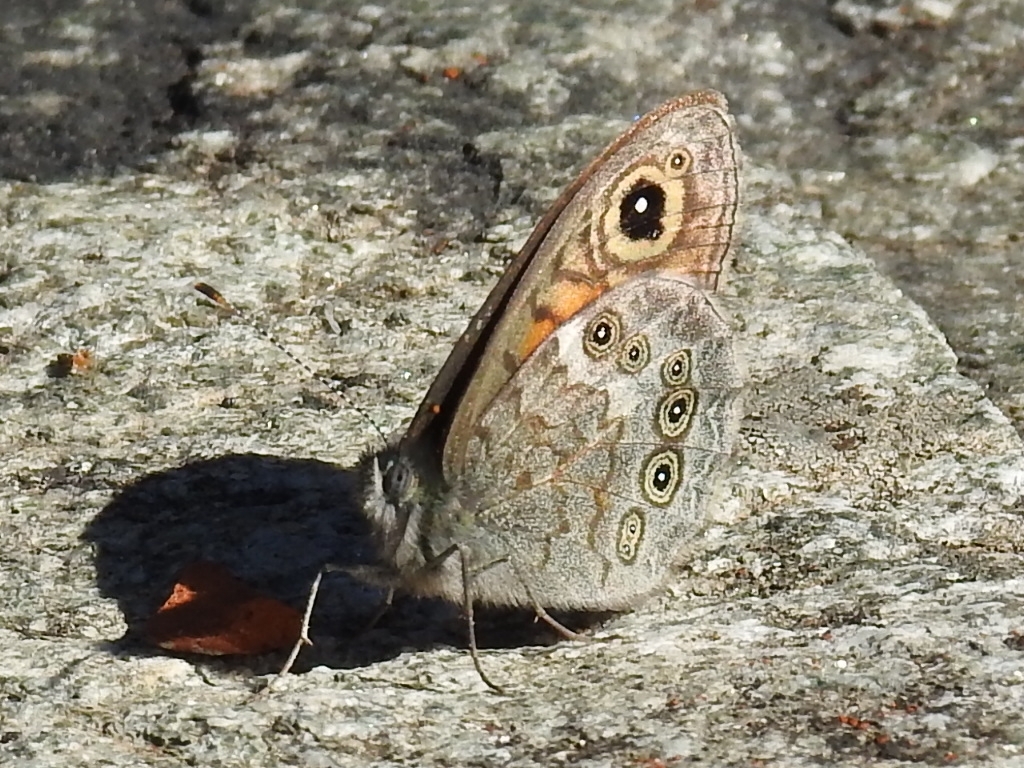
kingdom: Animalia
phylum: Arthropoda
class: Insecta
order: Lepidoptera
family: Nymphalidae
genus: Pararge
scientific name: Pararge Lasiommata maera
